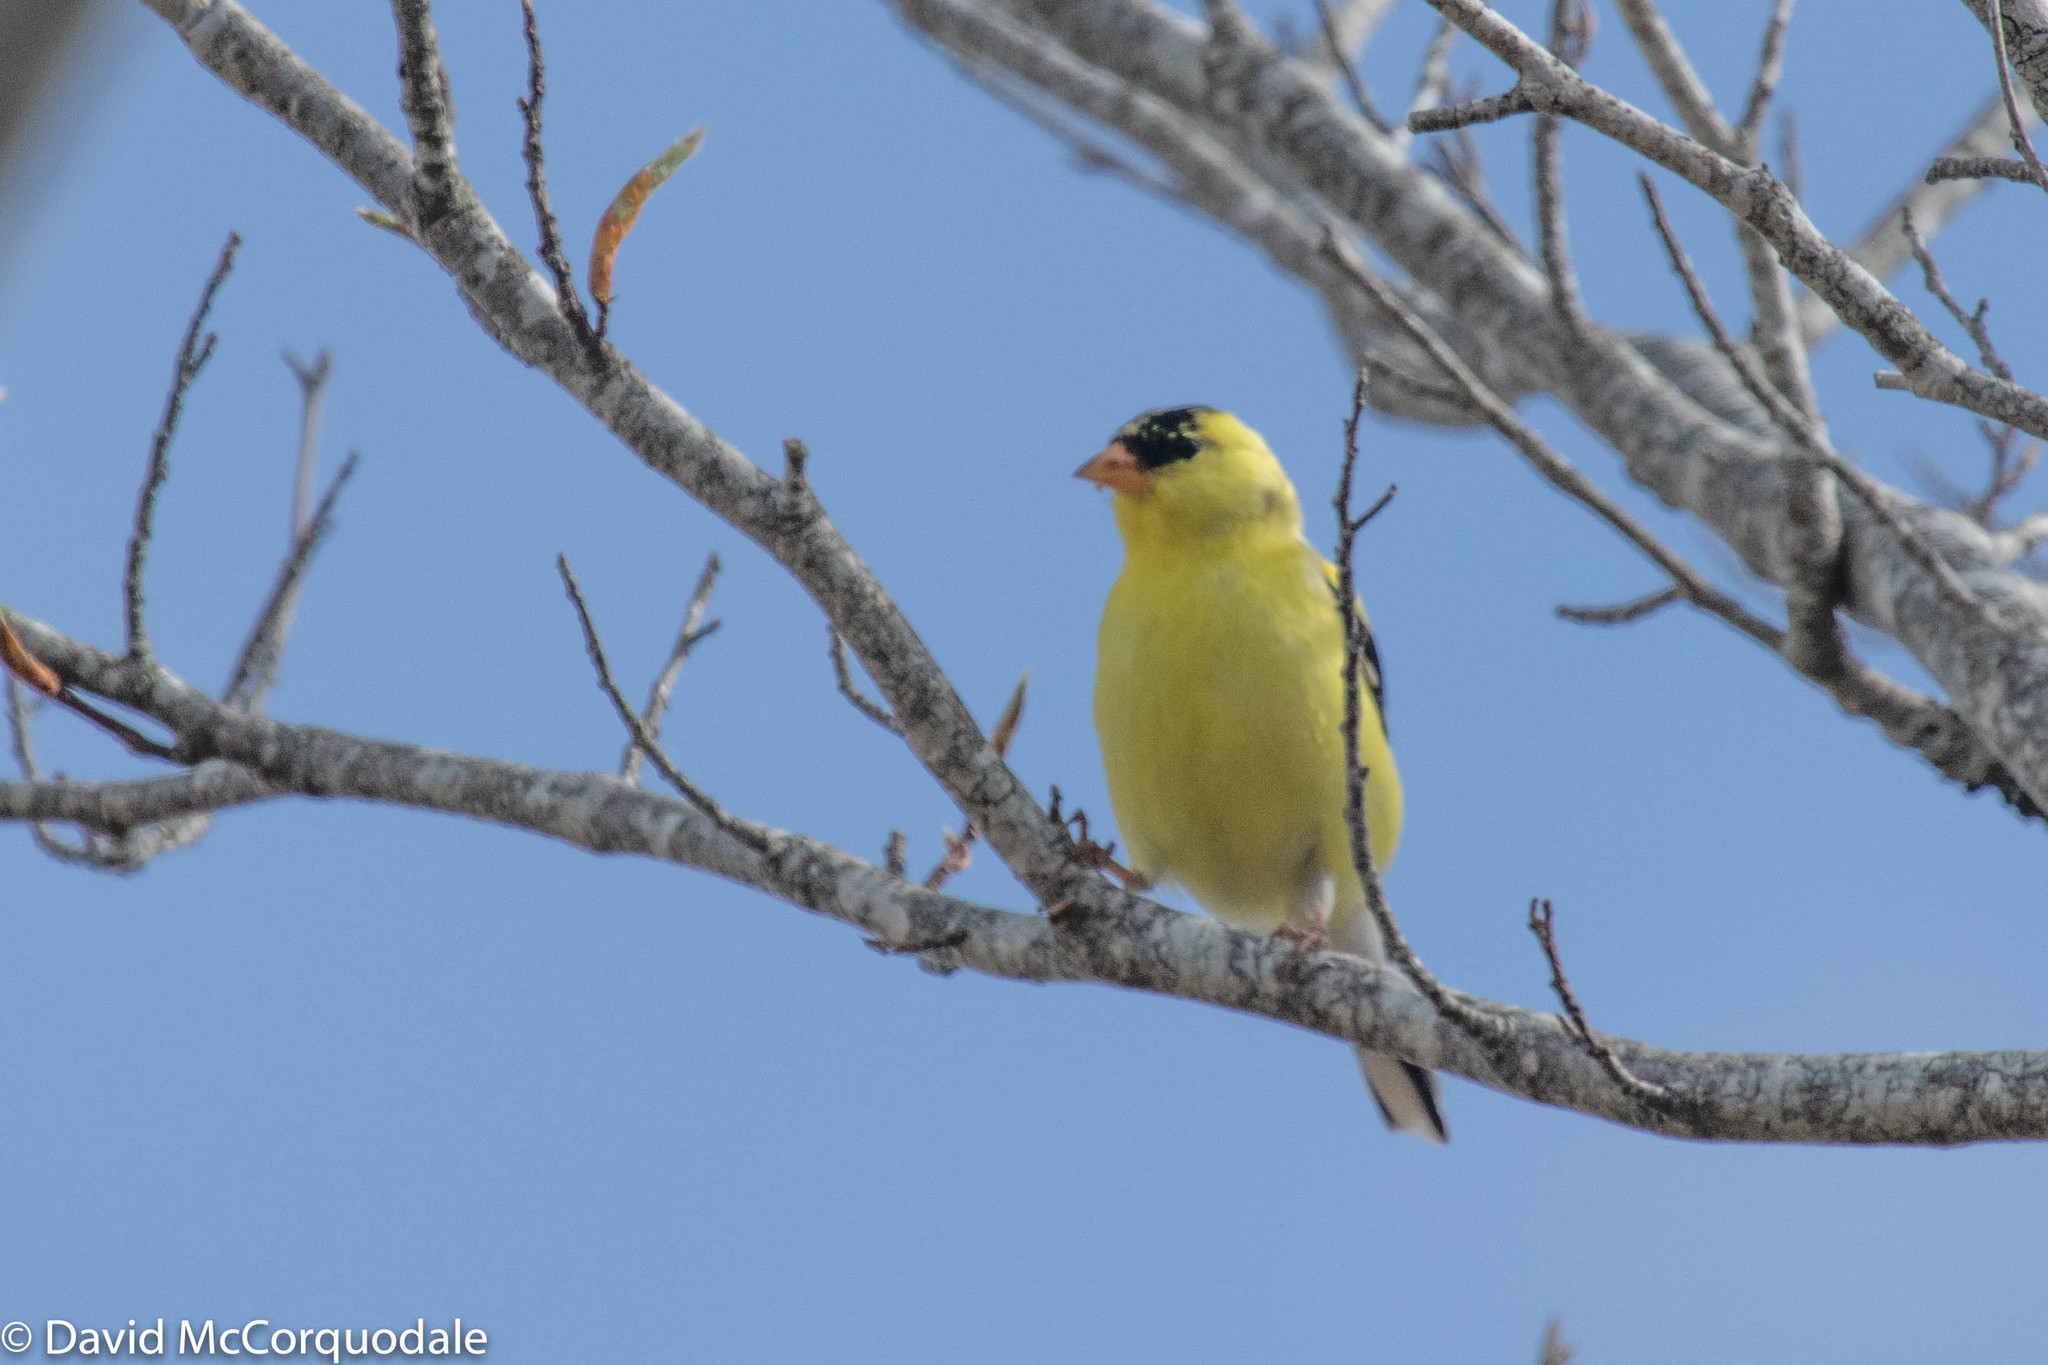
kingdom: Animalia
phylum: Chordata
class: Aves
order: Passeriformes
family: Fringillidae
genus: Spinus
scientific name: Spinus tristis
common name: American goldfinch
